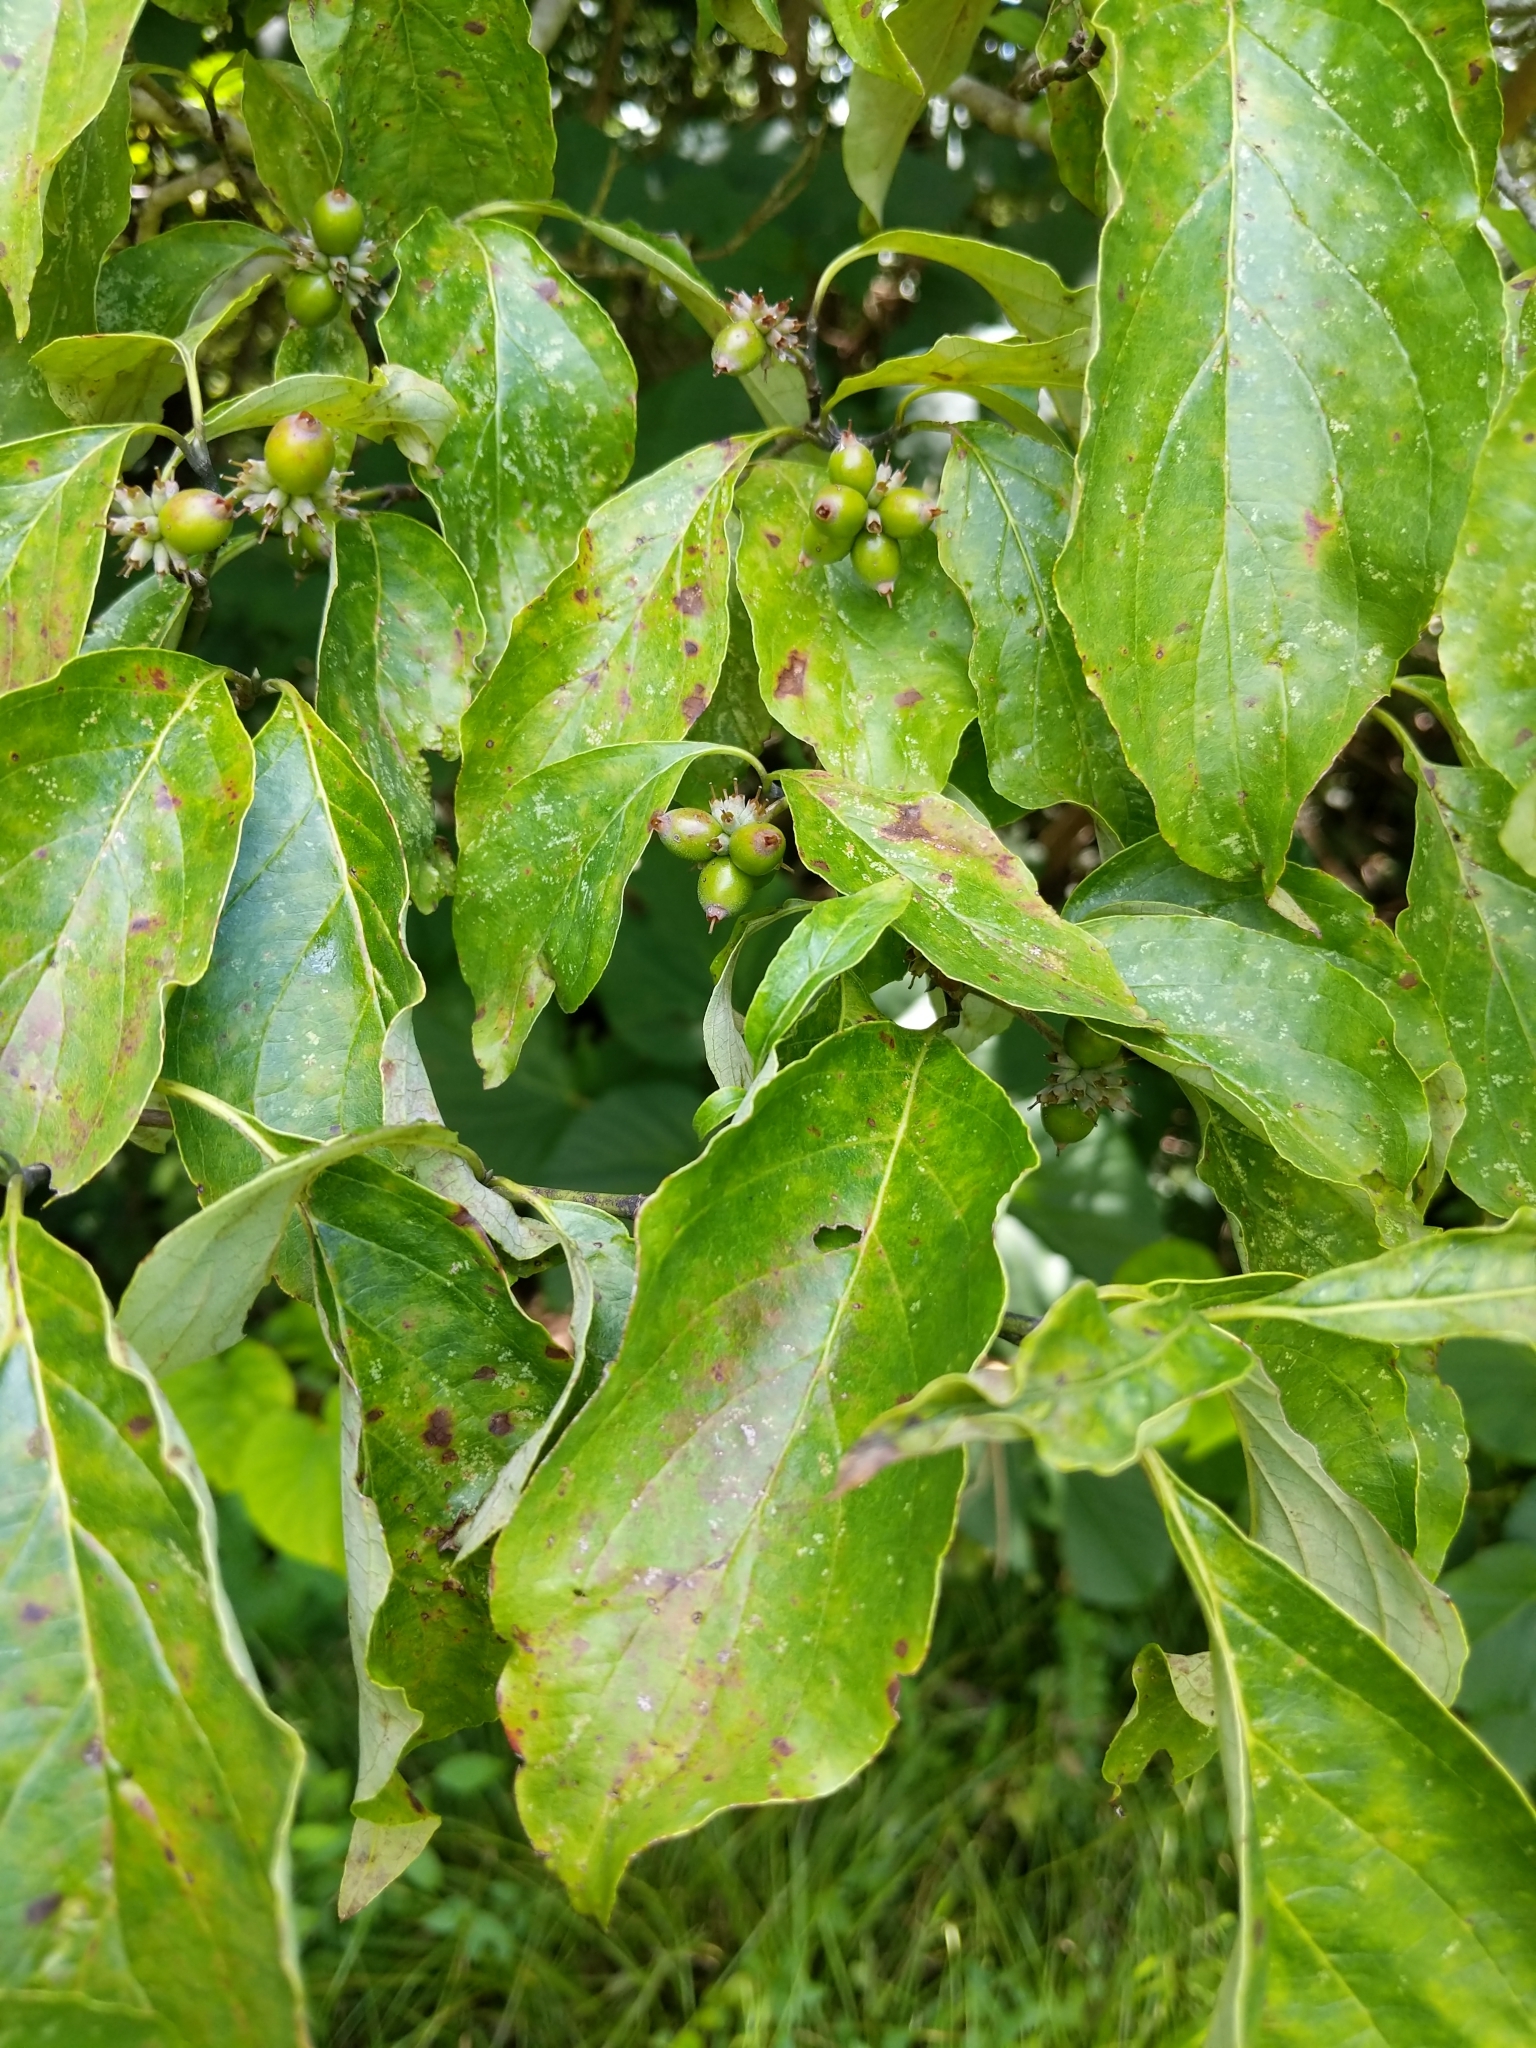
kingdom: Plantae
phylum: Tracheophyta
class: Magnoliopsida
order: Cornales
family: Cornaceae
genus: Cornus
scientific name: Cornus florida
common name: Flowering dogwood
